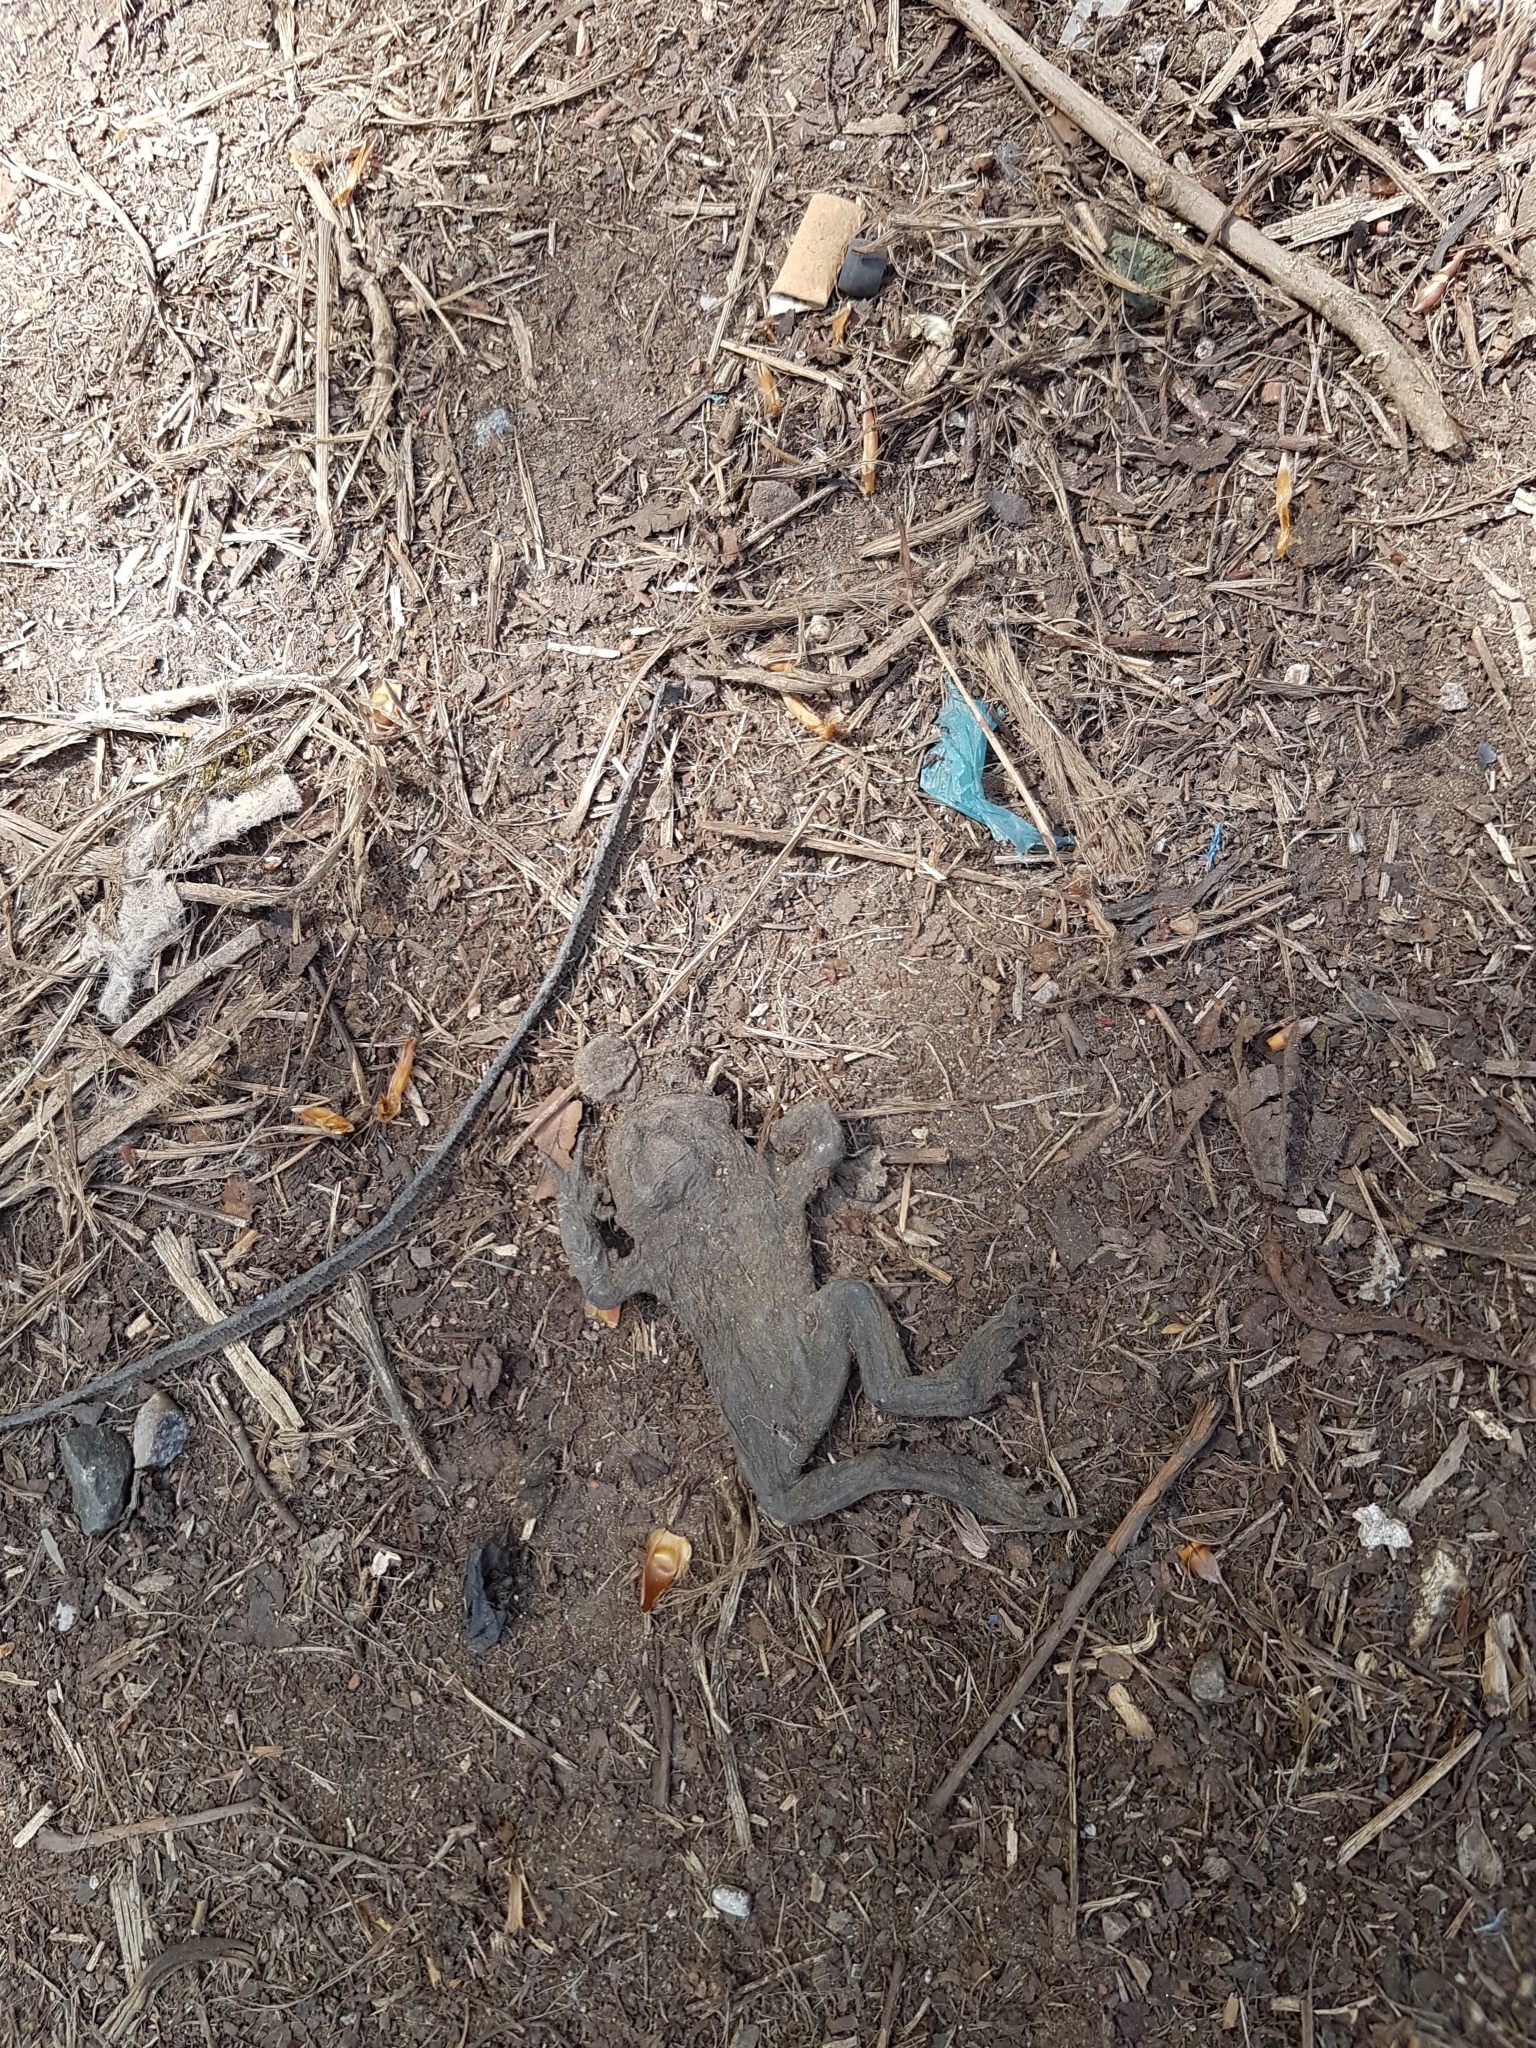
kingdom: Animalia
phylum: Chordata
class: Amphibia
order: Anura
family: Bufonidae
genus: Bufo
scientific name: Bufo bufo
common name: Common toad
